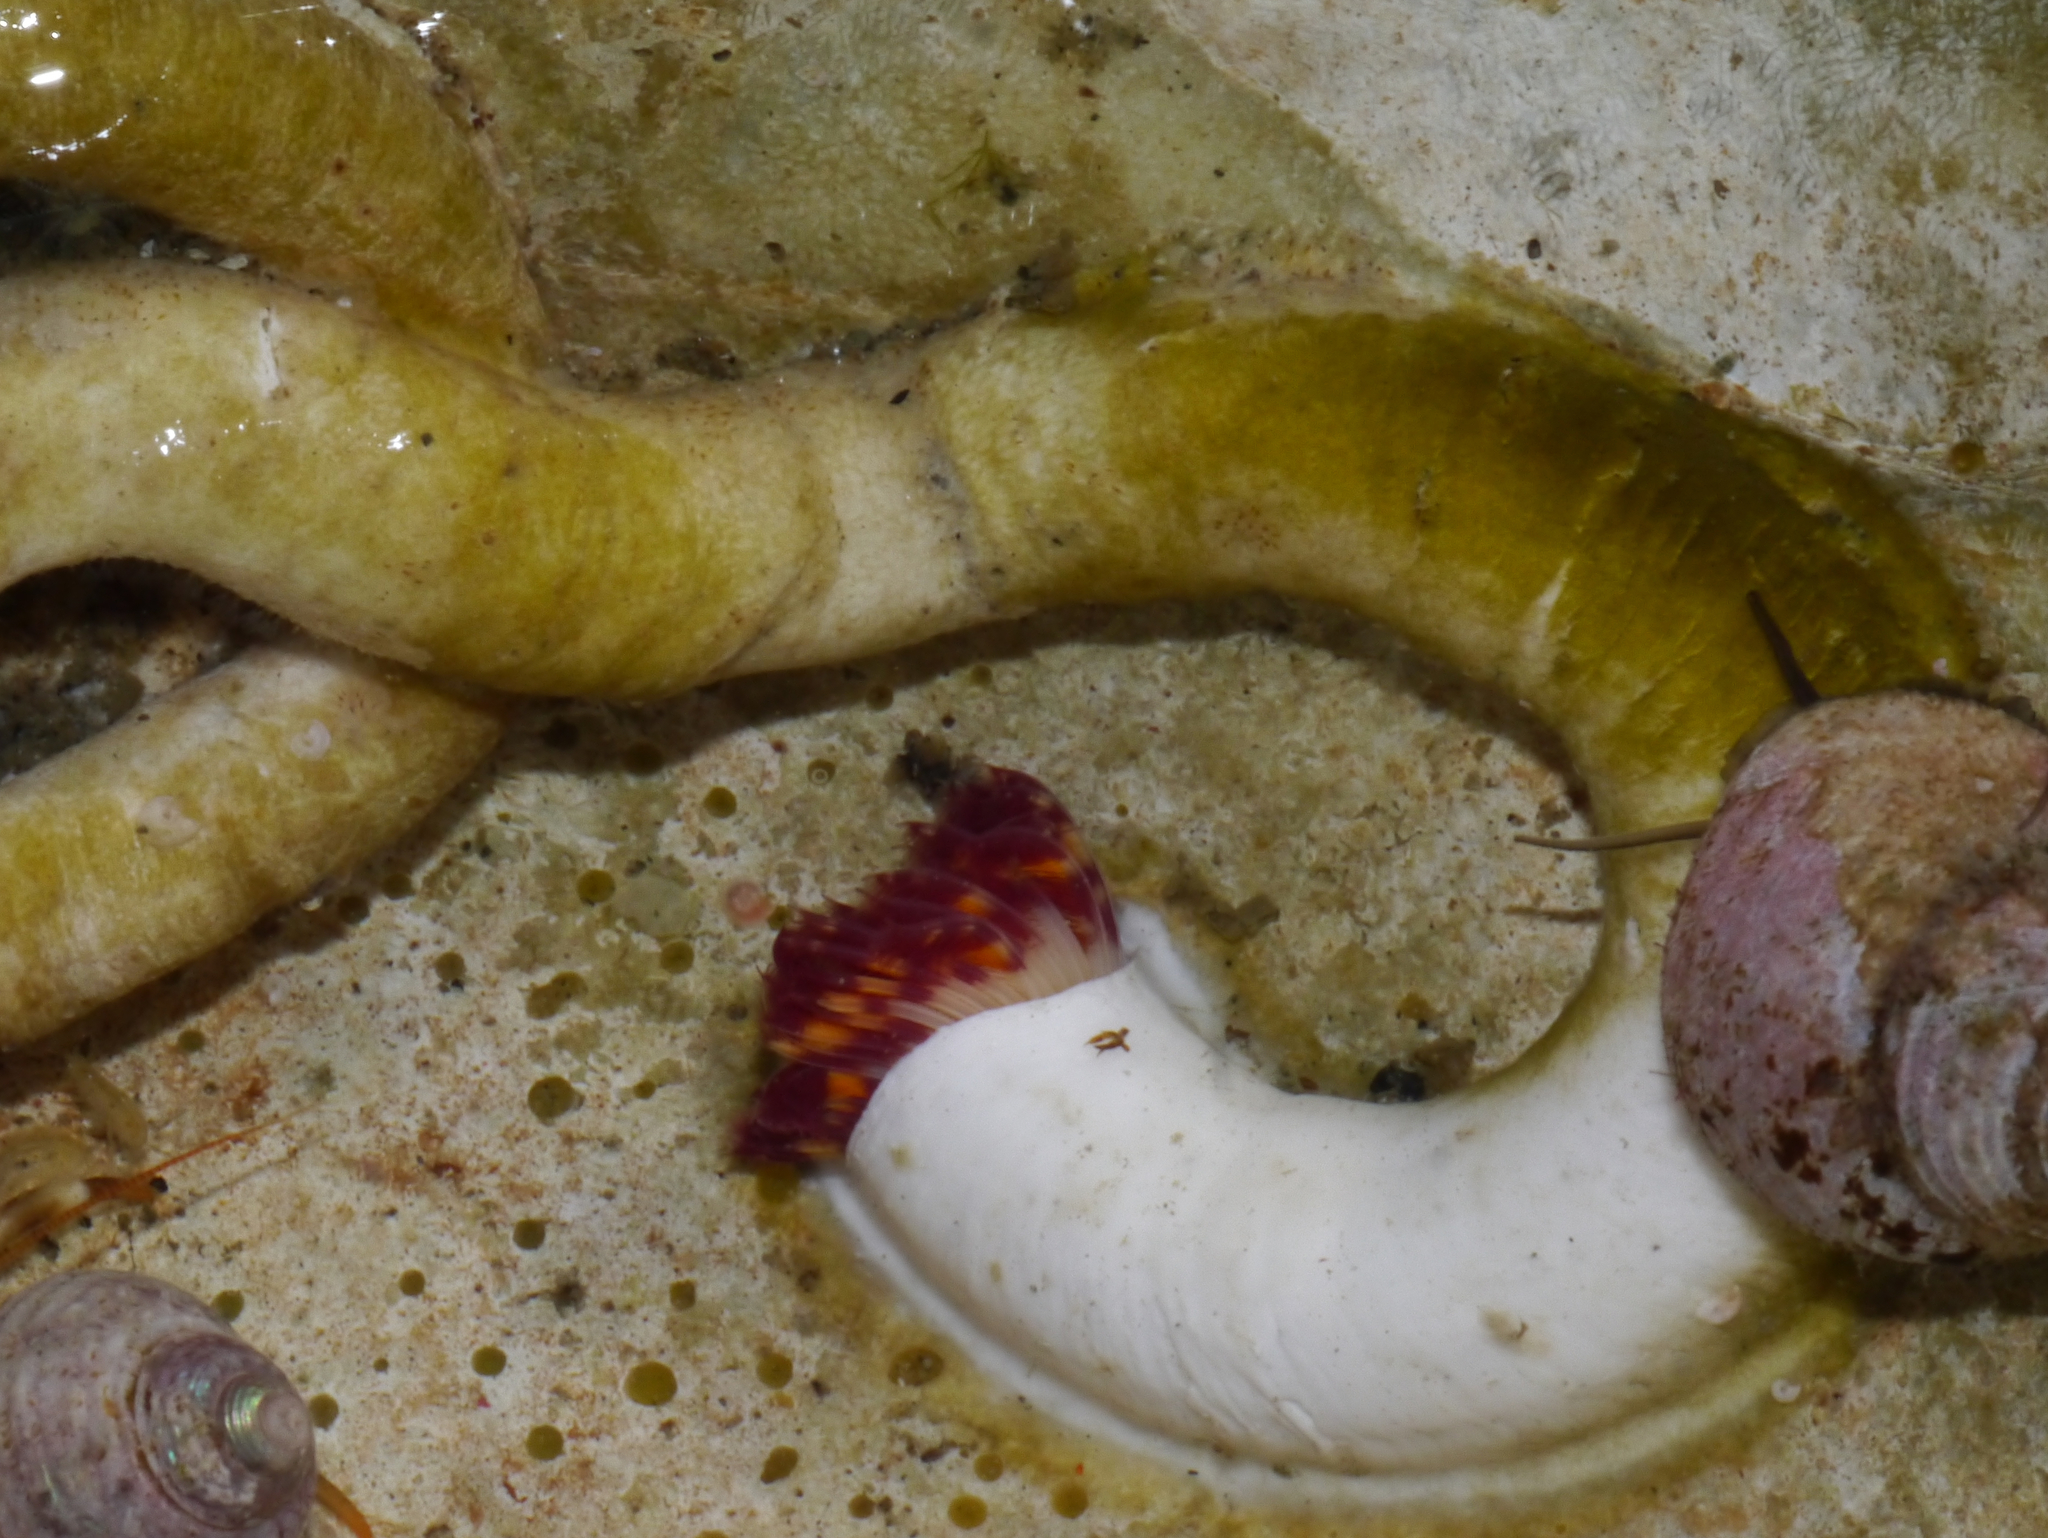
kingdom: Animalia
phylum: Annelida
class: Polychaeta
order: Sabellida
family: Serpulidae
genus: Serpula
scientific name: Serpula columbiana
